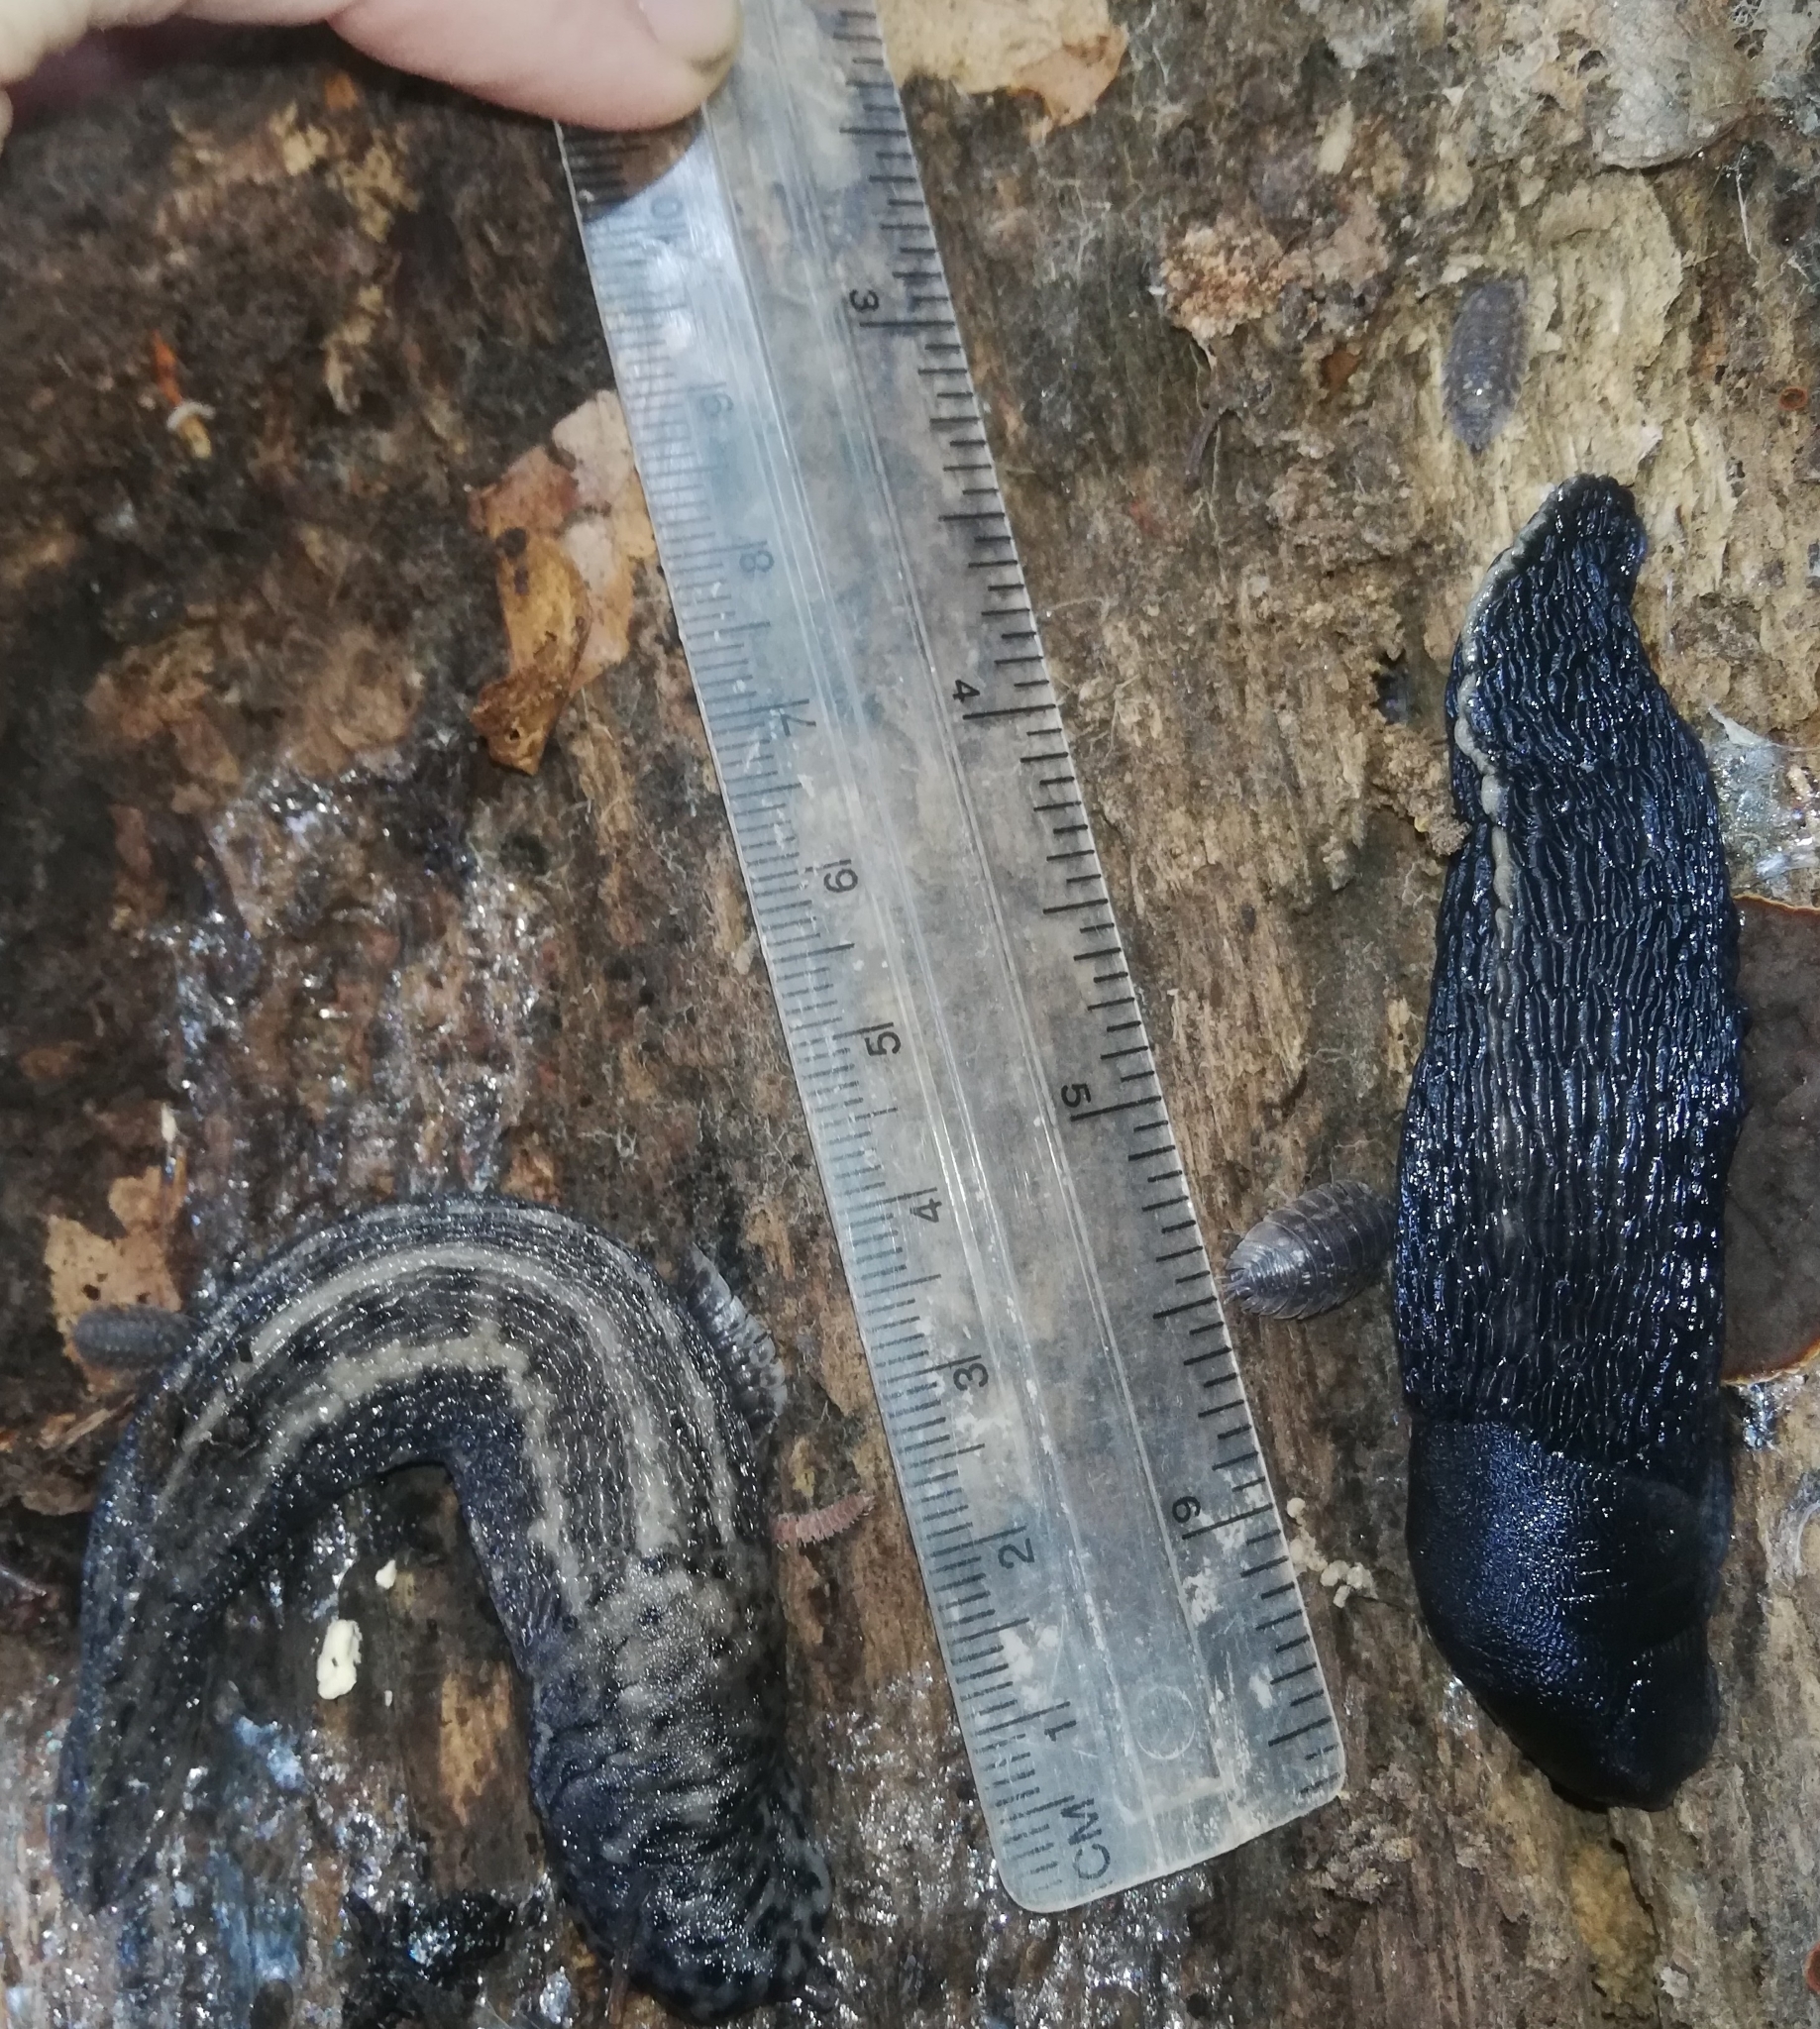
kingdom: Animalia
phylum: Mollusca
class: Gastropoda
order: Stylommatophora
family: Limacidae
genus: Limax
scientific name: Limax maximus
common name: Great grey slug
